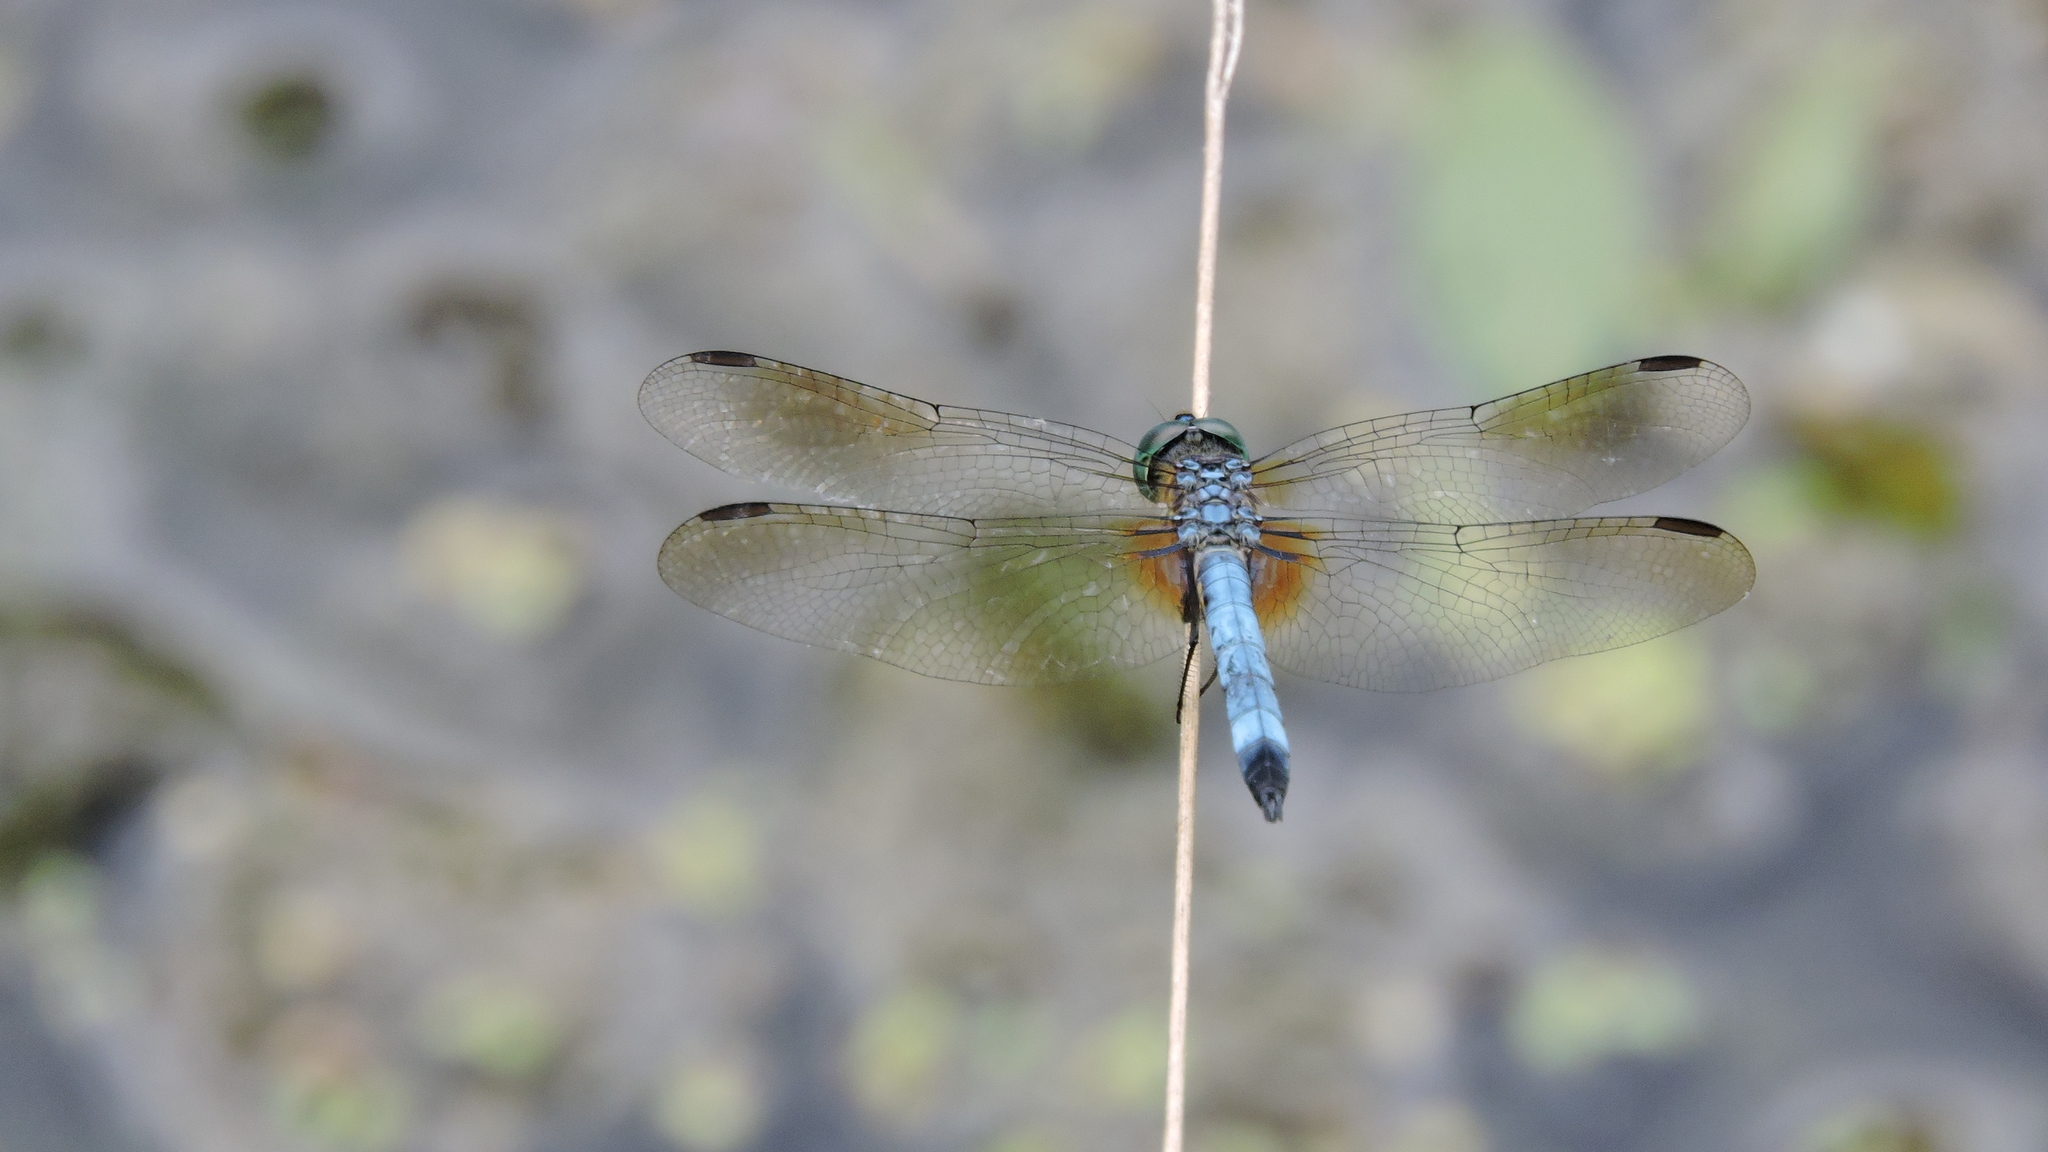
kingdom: Animalia
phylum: Arthropoda
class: Insecta
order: Odonata
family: Libellulidae
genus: Pachydiplax
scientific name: Pachydiplax longipennis
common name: Blue dasher
